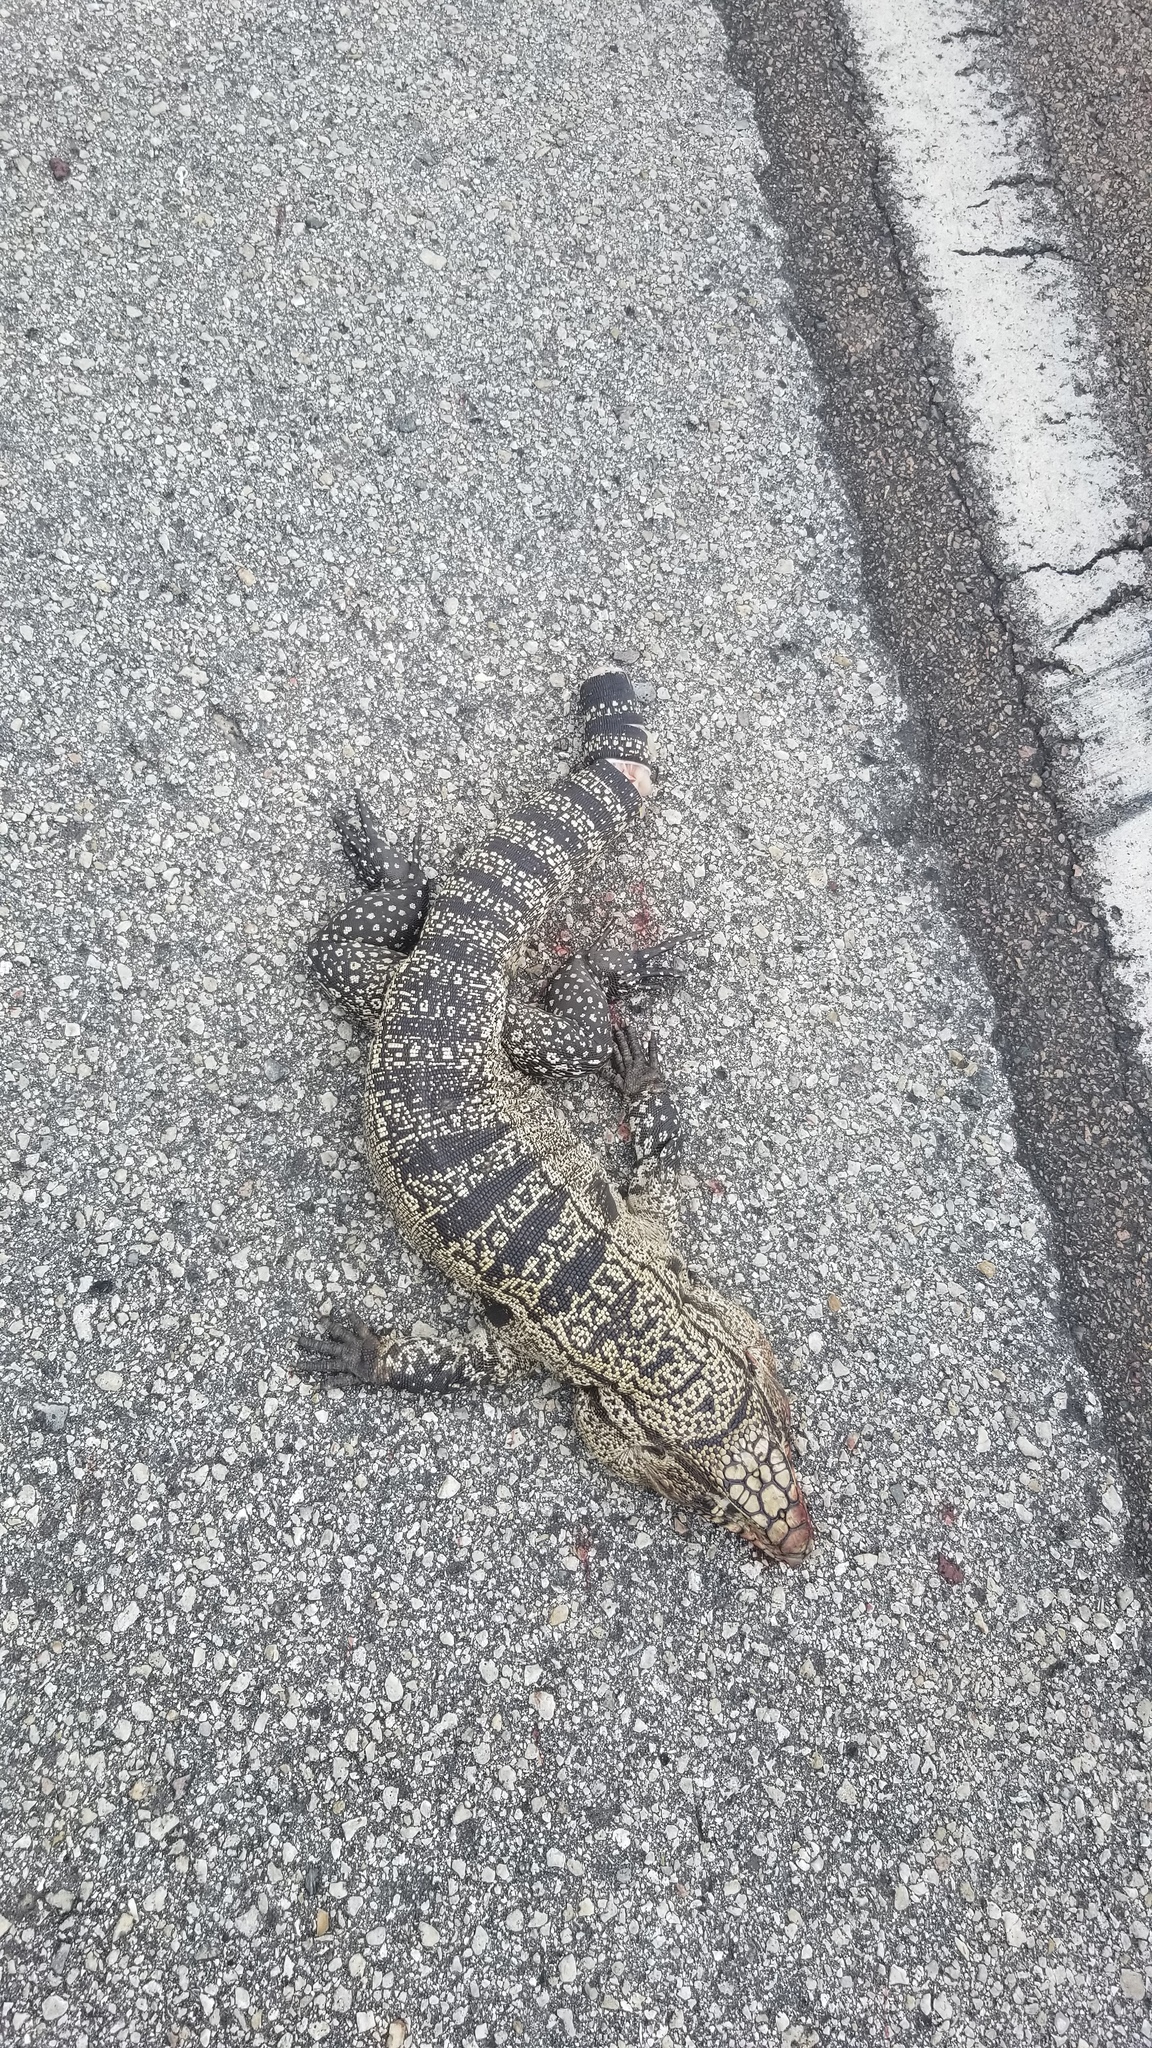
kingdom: Animalia
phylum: Chordata
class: Squamata
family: Teiidae
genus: Salvator
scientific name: Salvator merianae
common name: Argentine black and white tegu
